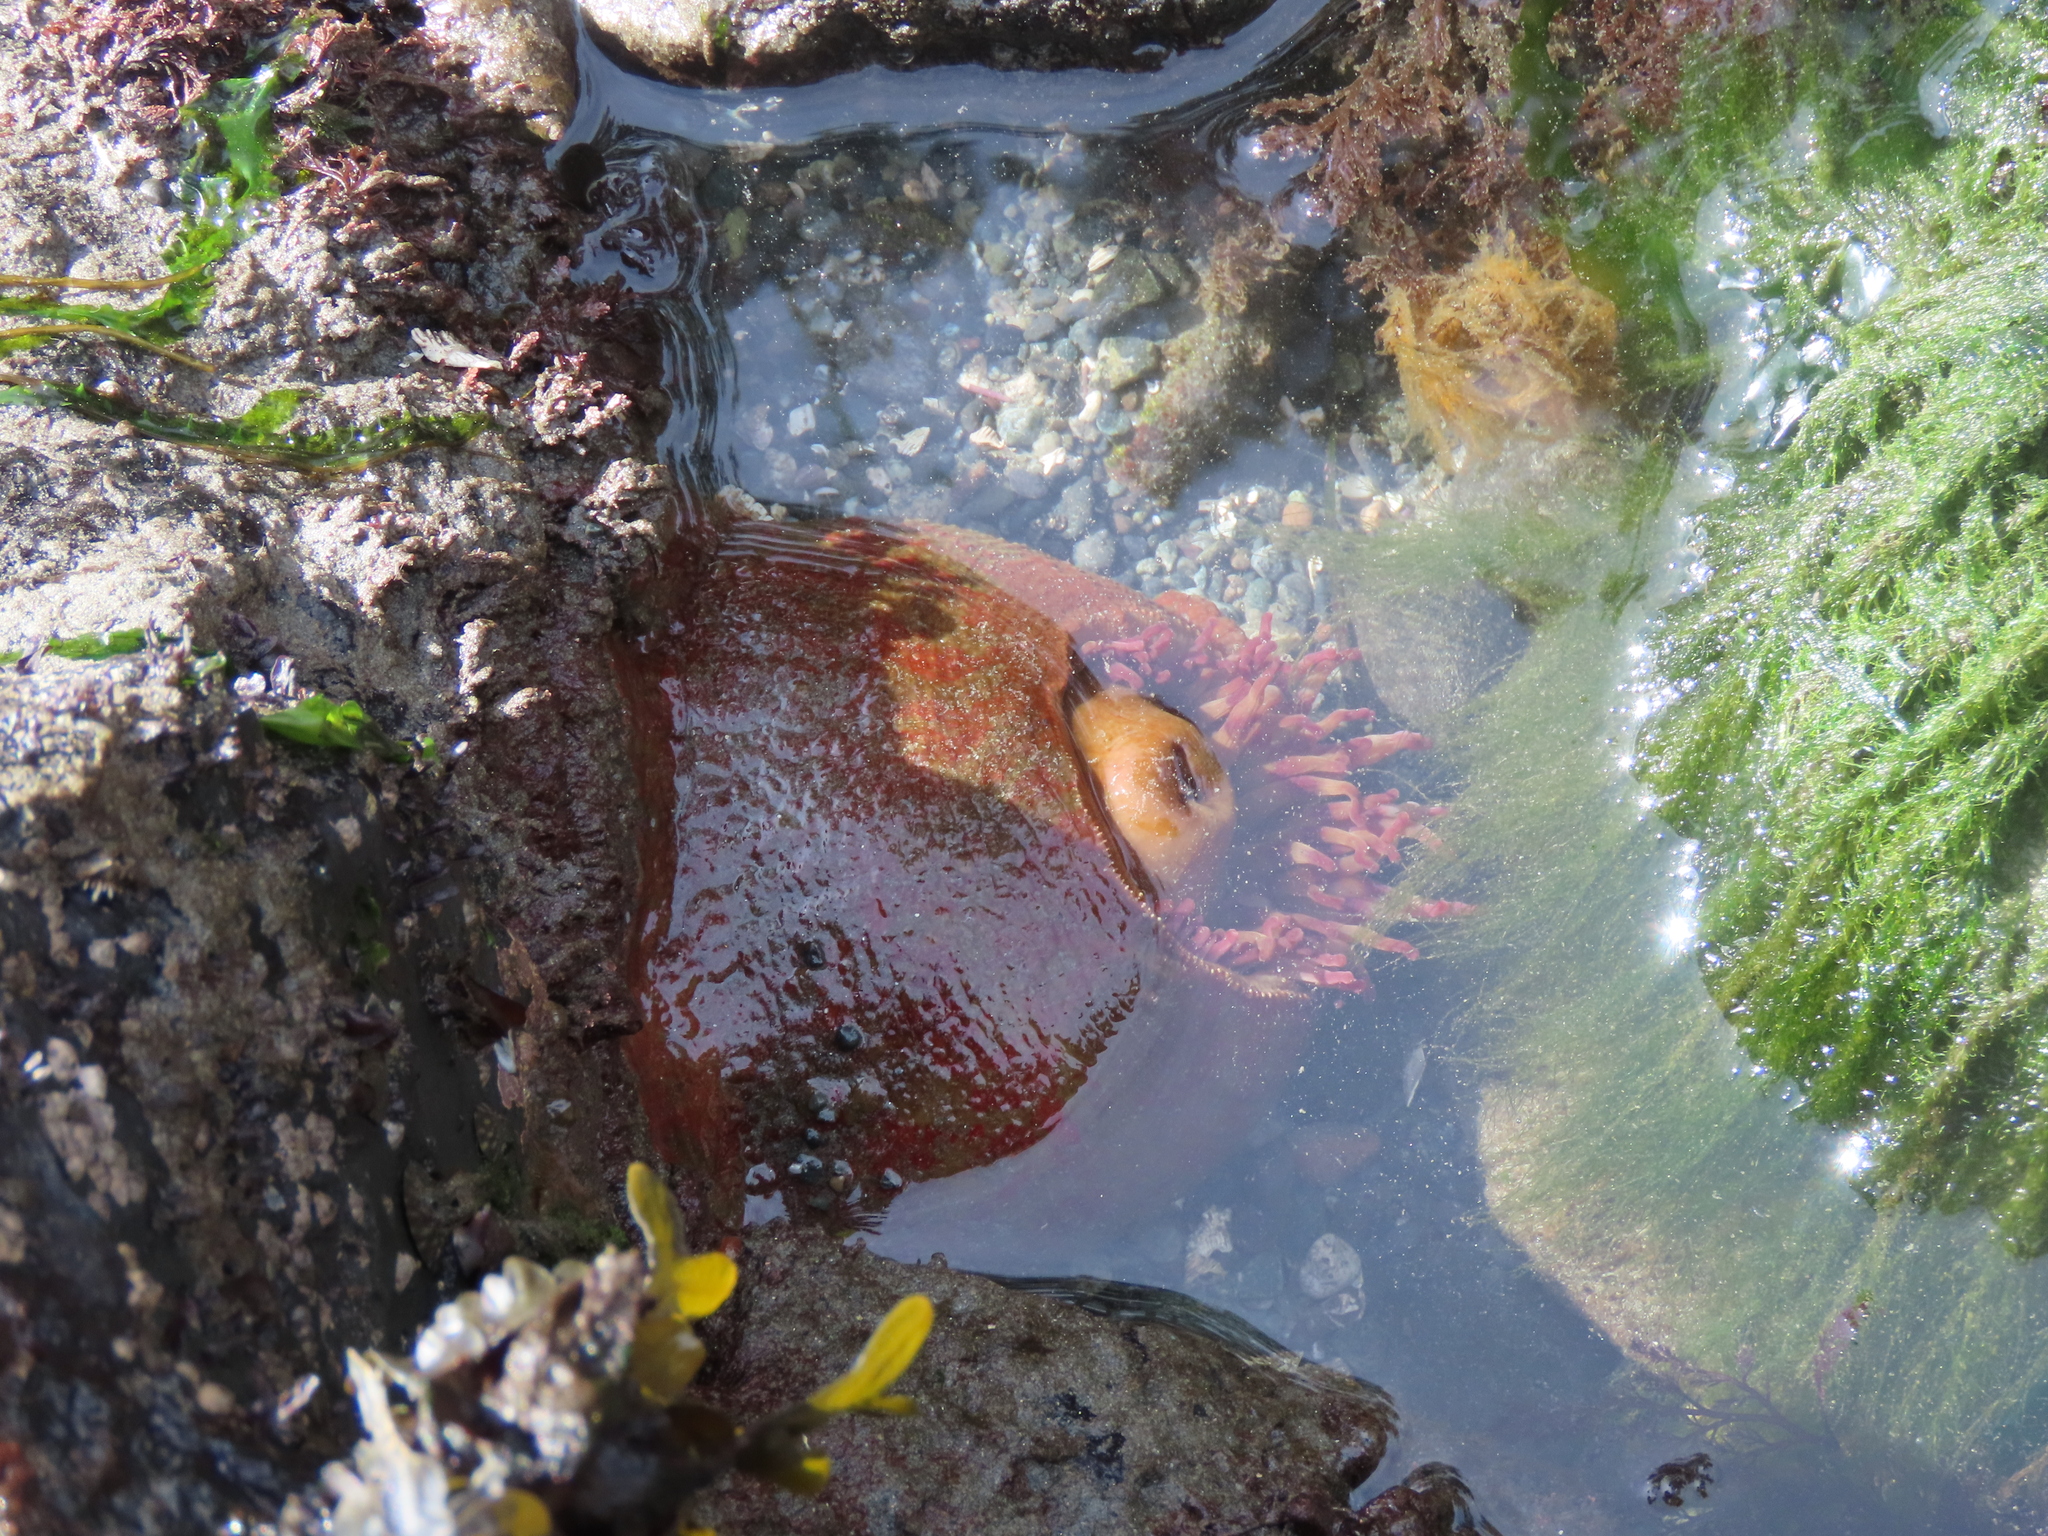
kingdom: Animalia
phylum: Cnidaria
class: Anthozoa
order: Actiniaria
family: Actiniidae
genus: Urticina
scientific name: Urticina grebelnyi
